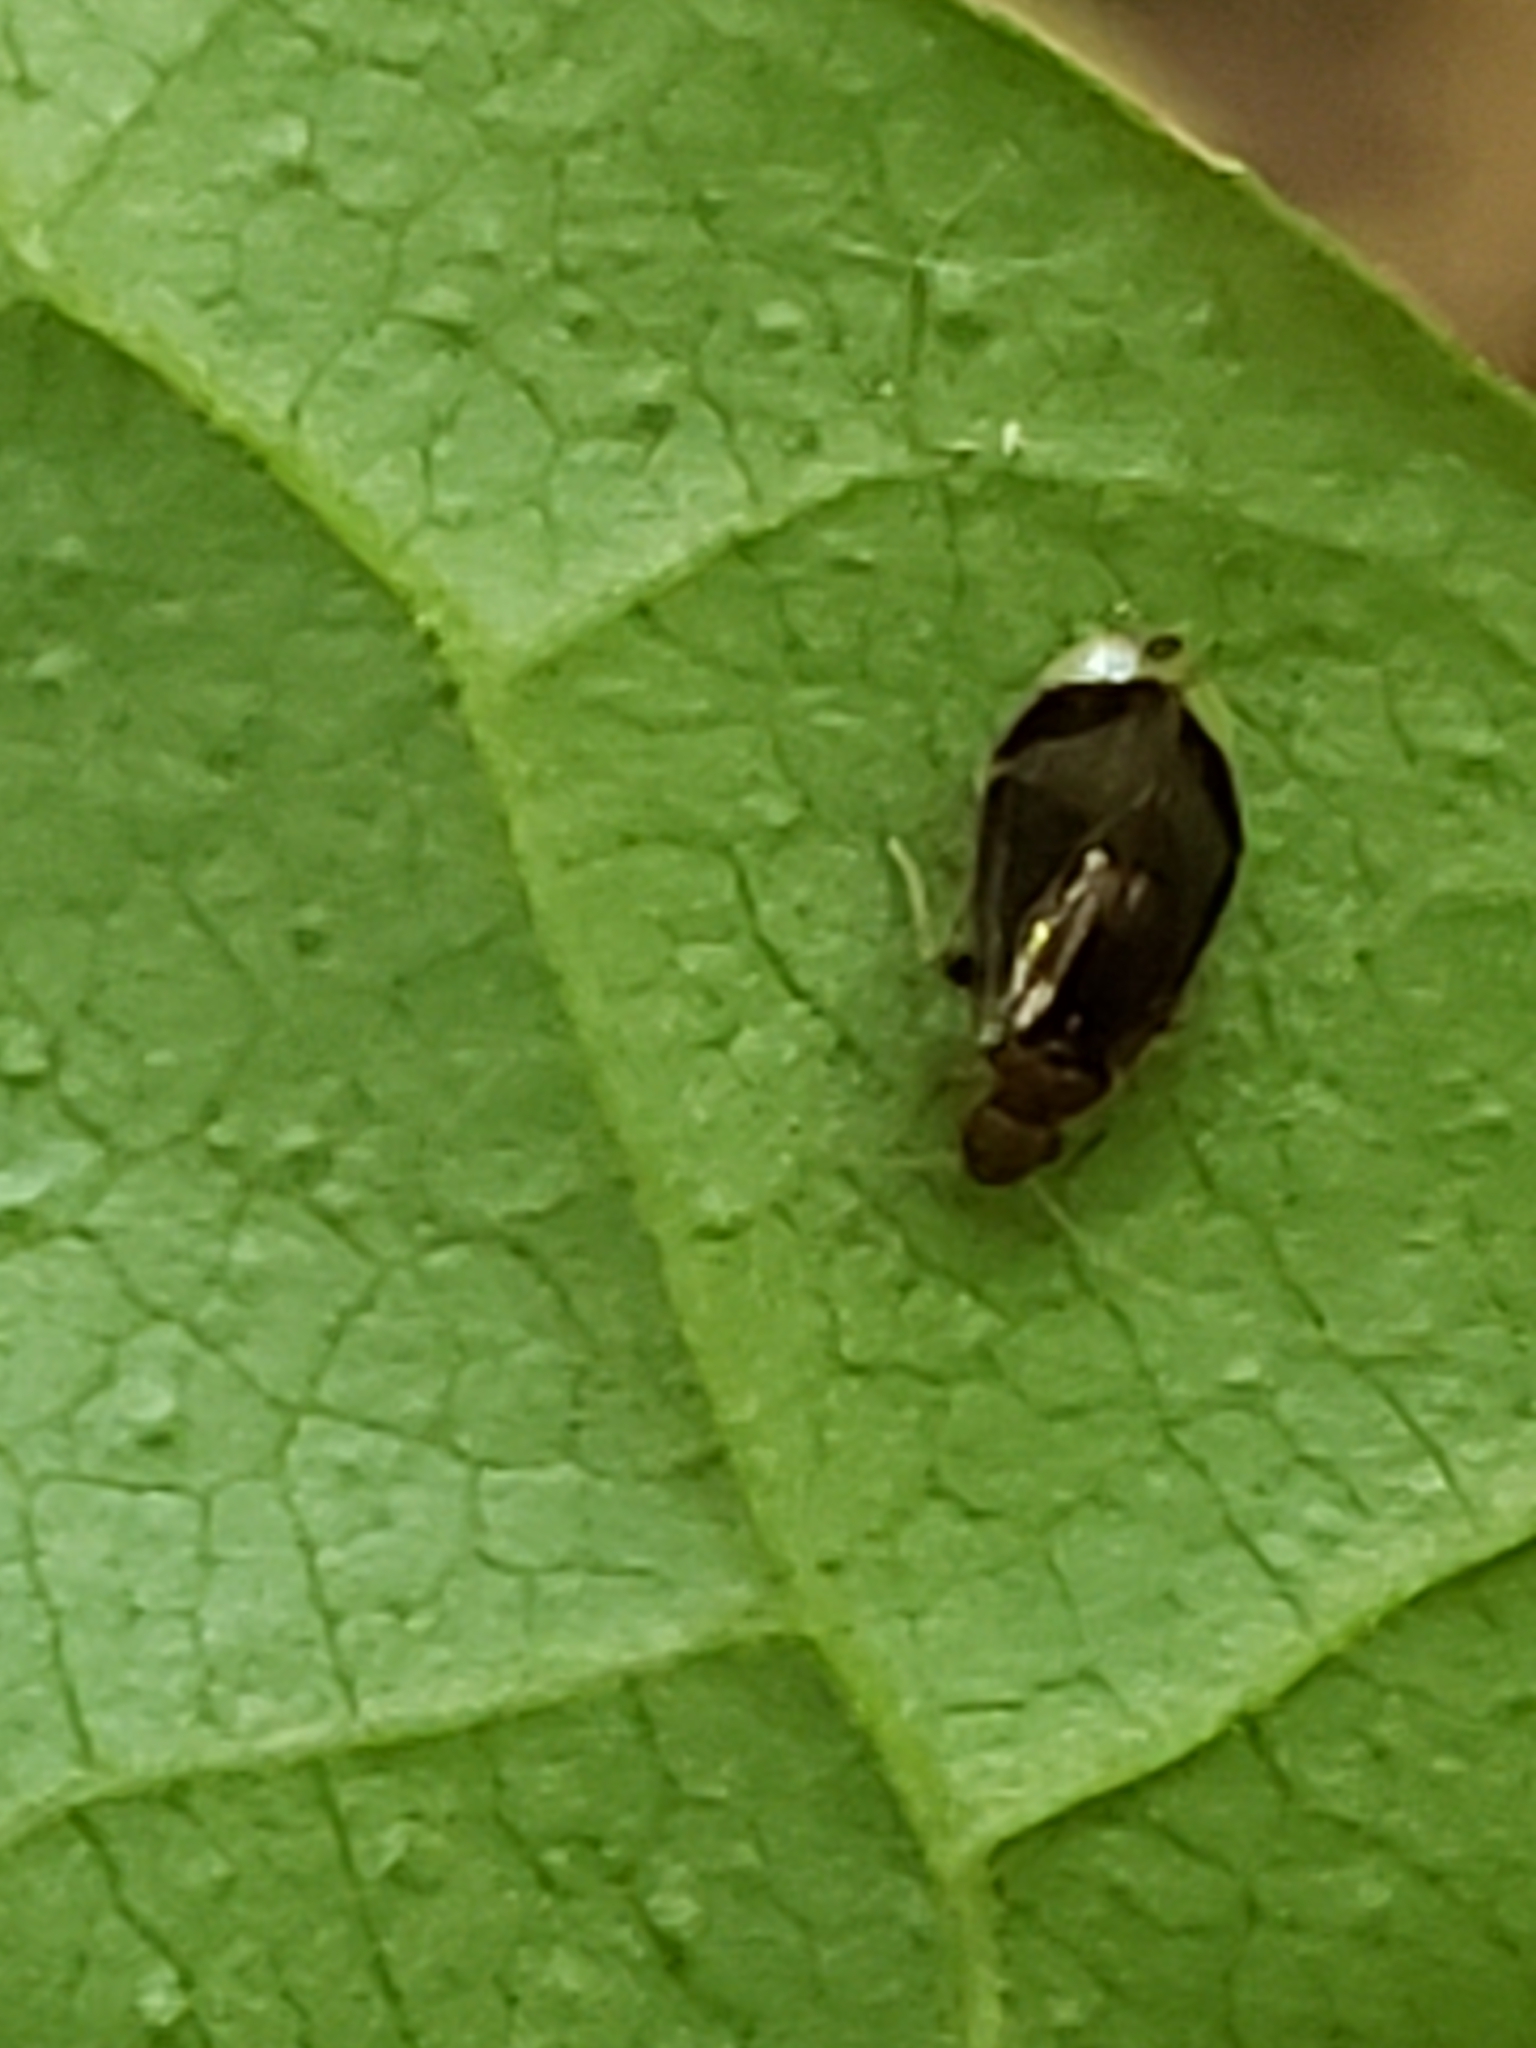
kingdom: Animalia
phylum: Arthropoda
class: Insecta
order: Psocodea
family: Amphipsocidae
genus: Polypsocus
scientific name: Polypsocus corruptus
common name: Corrupt barklouse
